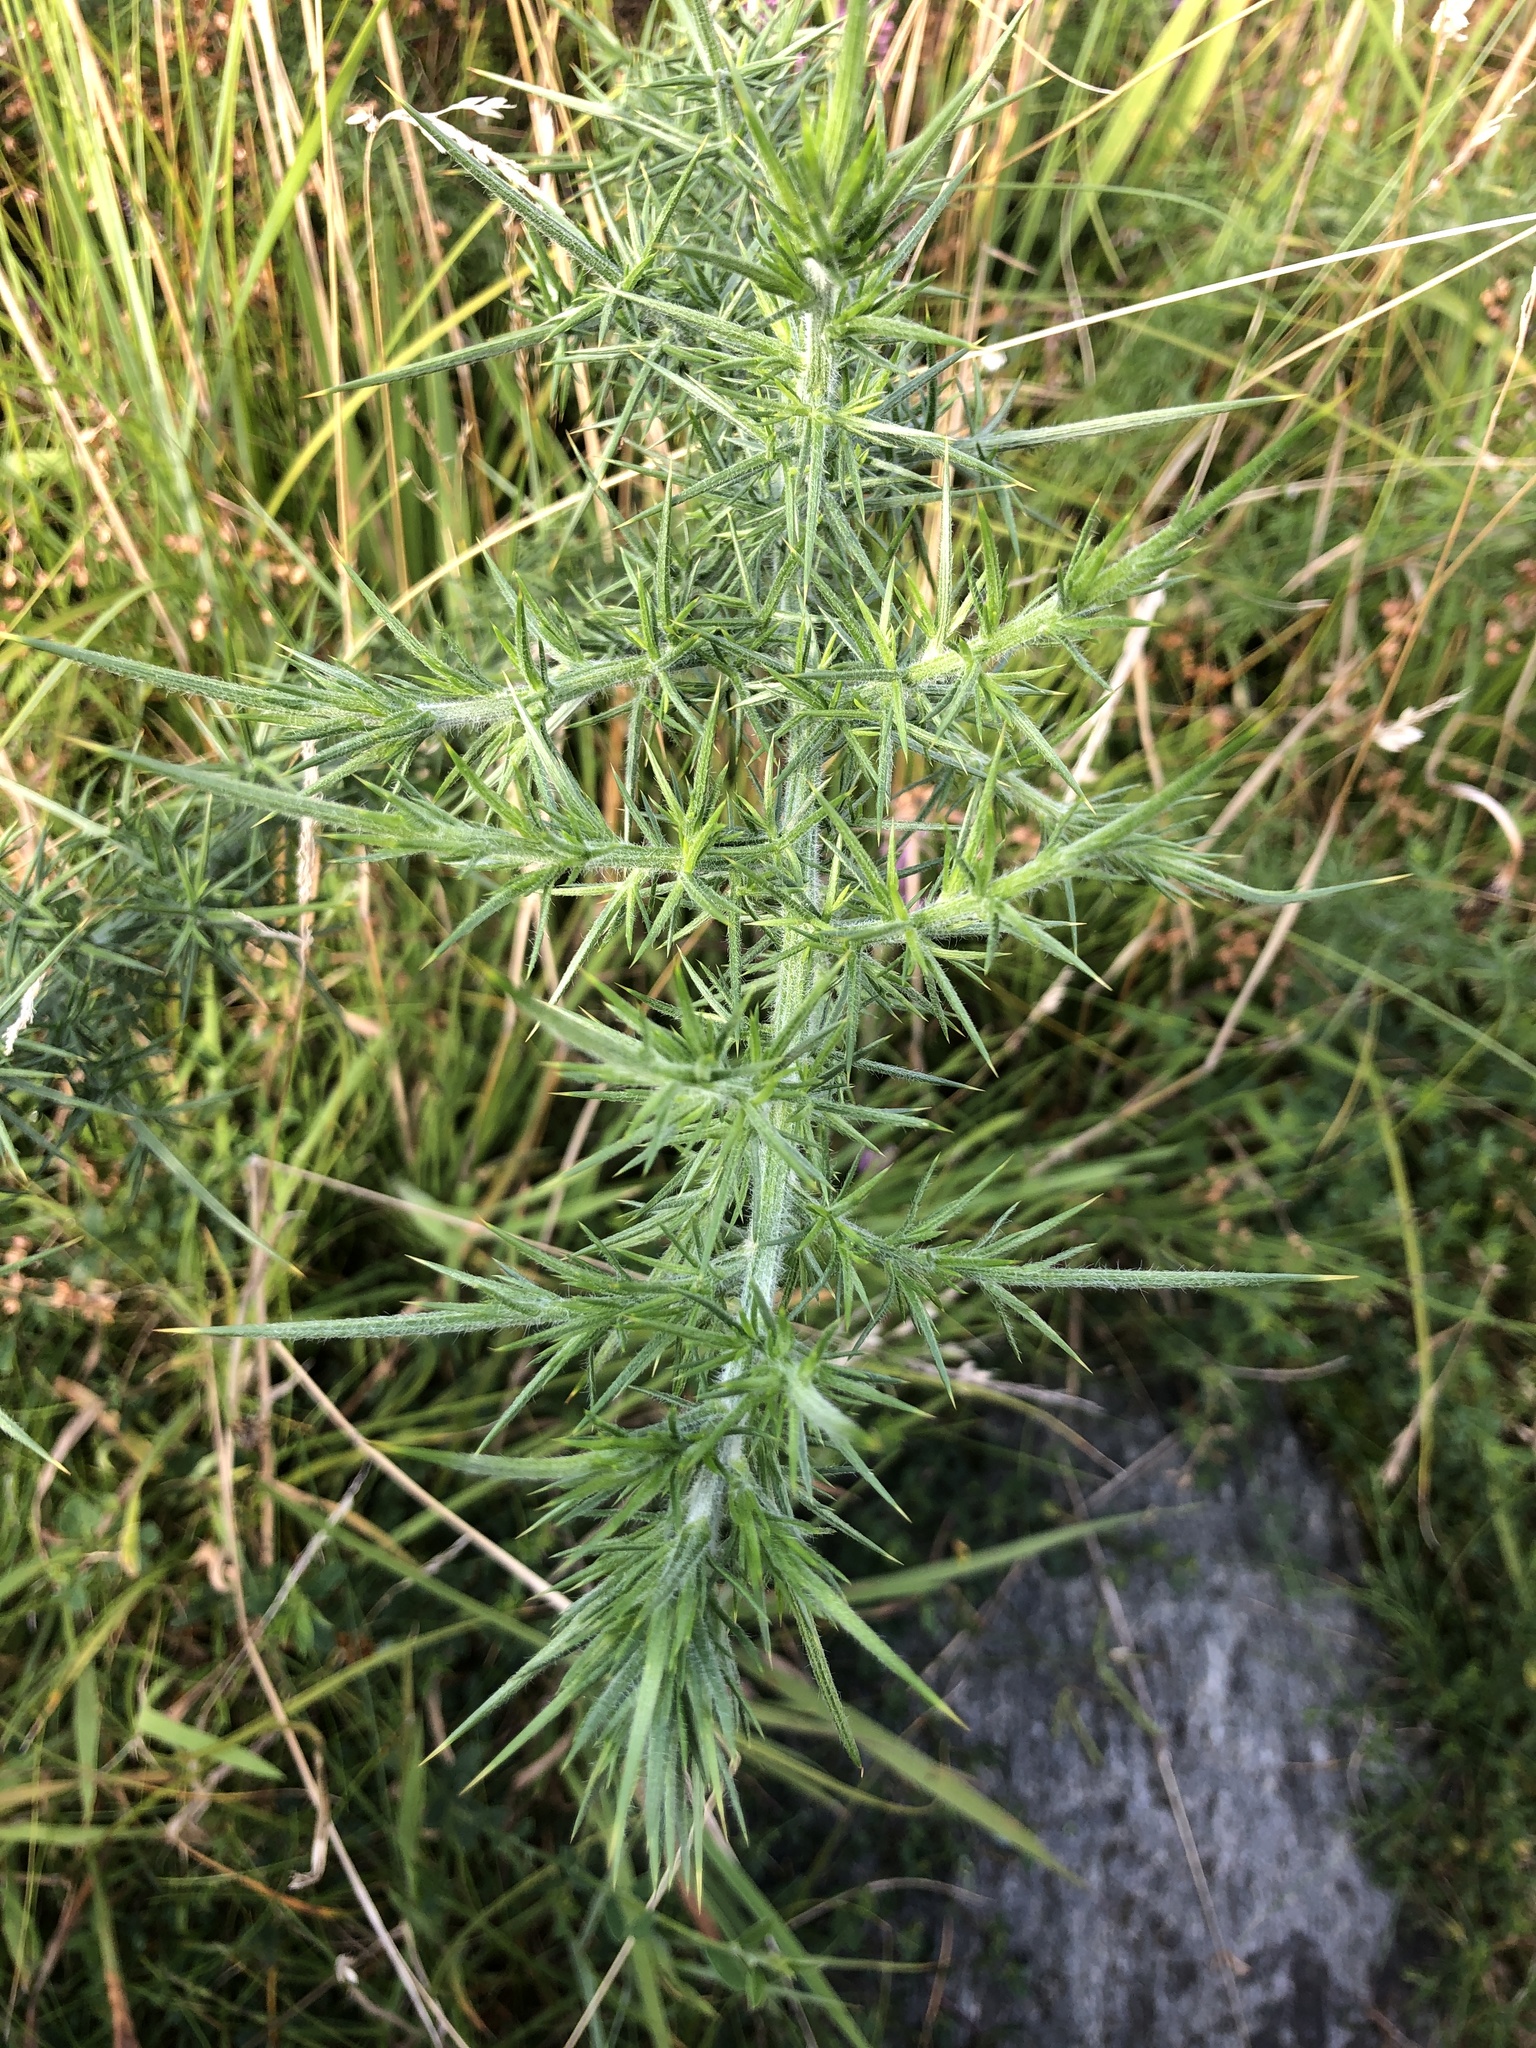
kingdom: Plantae
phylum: Tracheophyta
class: Magnoliopsida
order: Fabales
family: Fabaceae
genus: Ulex
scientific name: Ulex europaeus
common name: Common gorse
